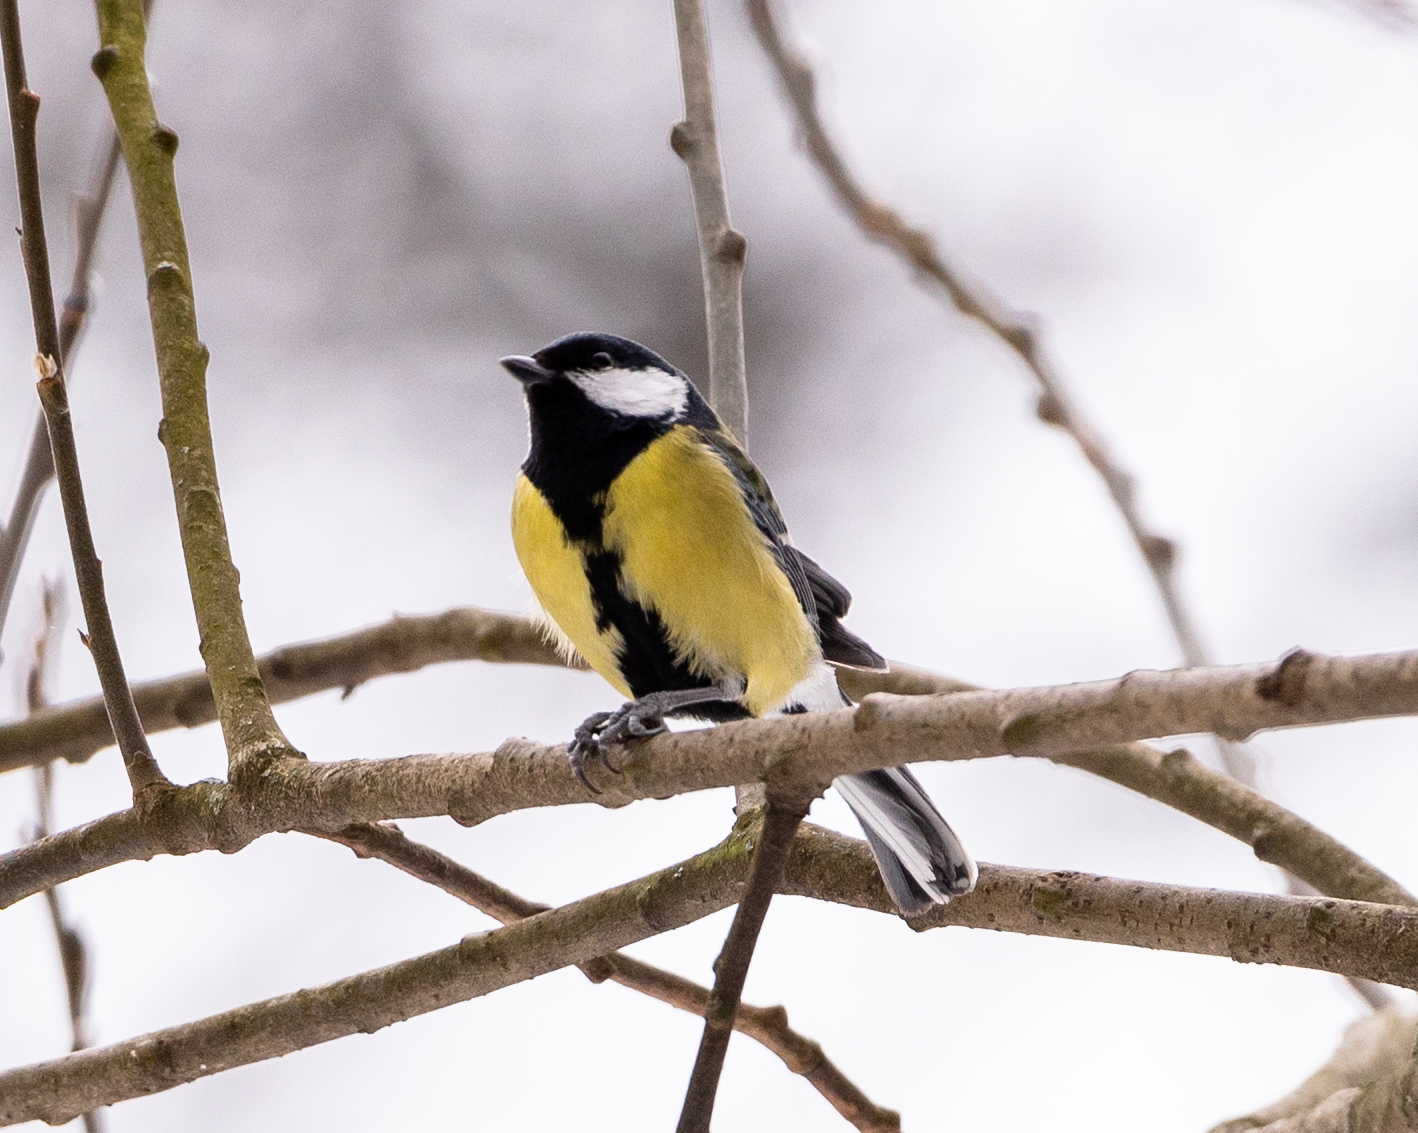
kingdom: Animalia
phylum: Chordata
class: Aves
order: Passeriformes
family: Paridae
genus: Parus
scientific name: Parus major
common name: Great tit
